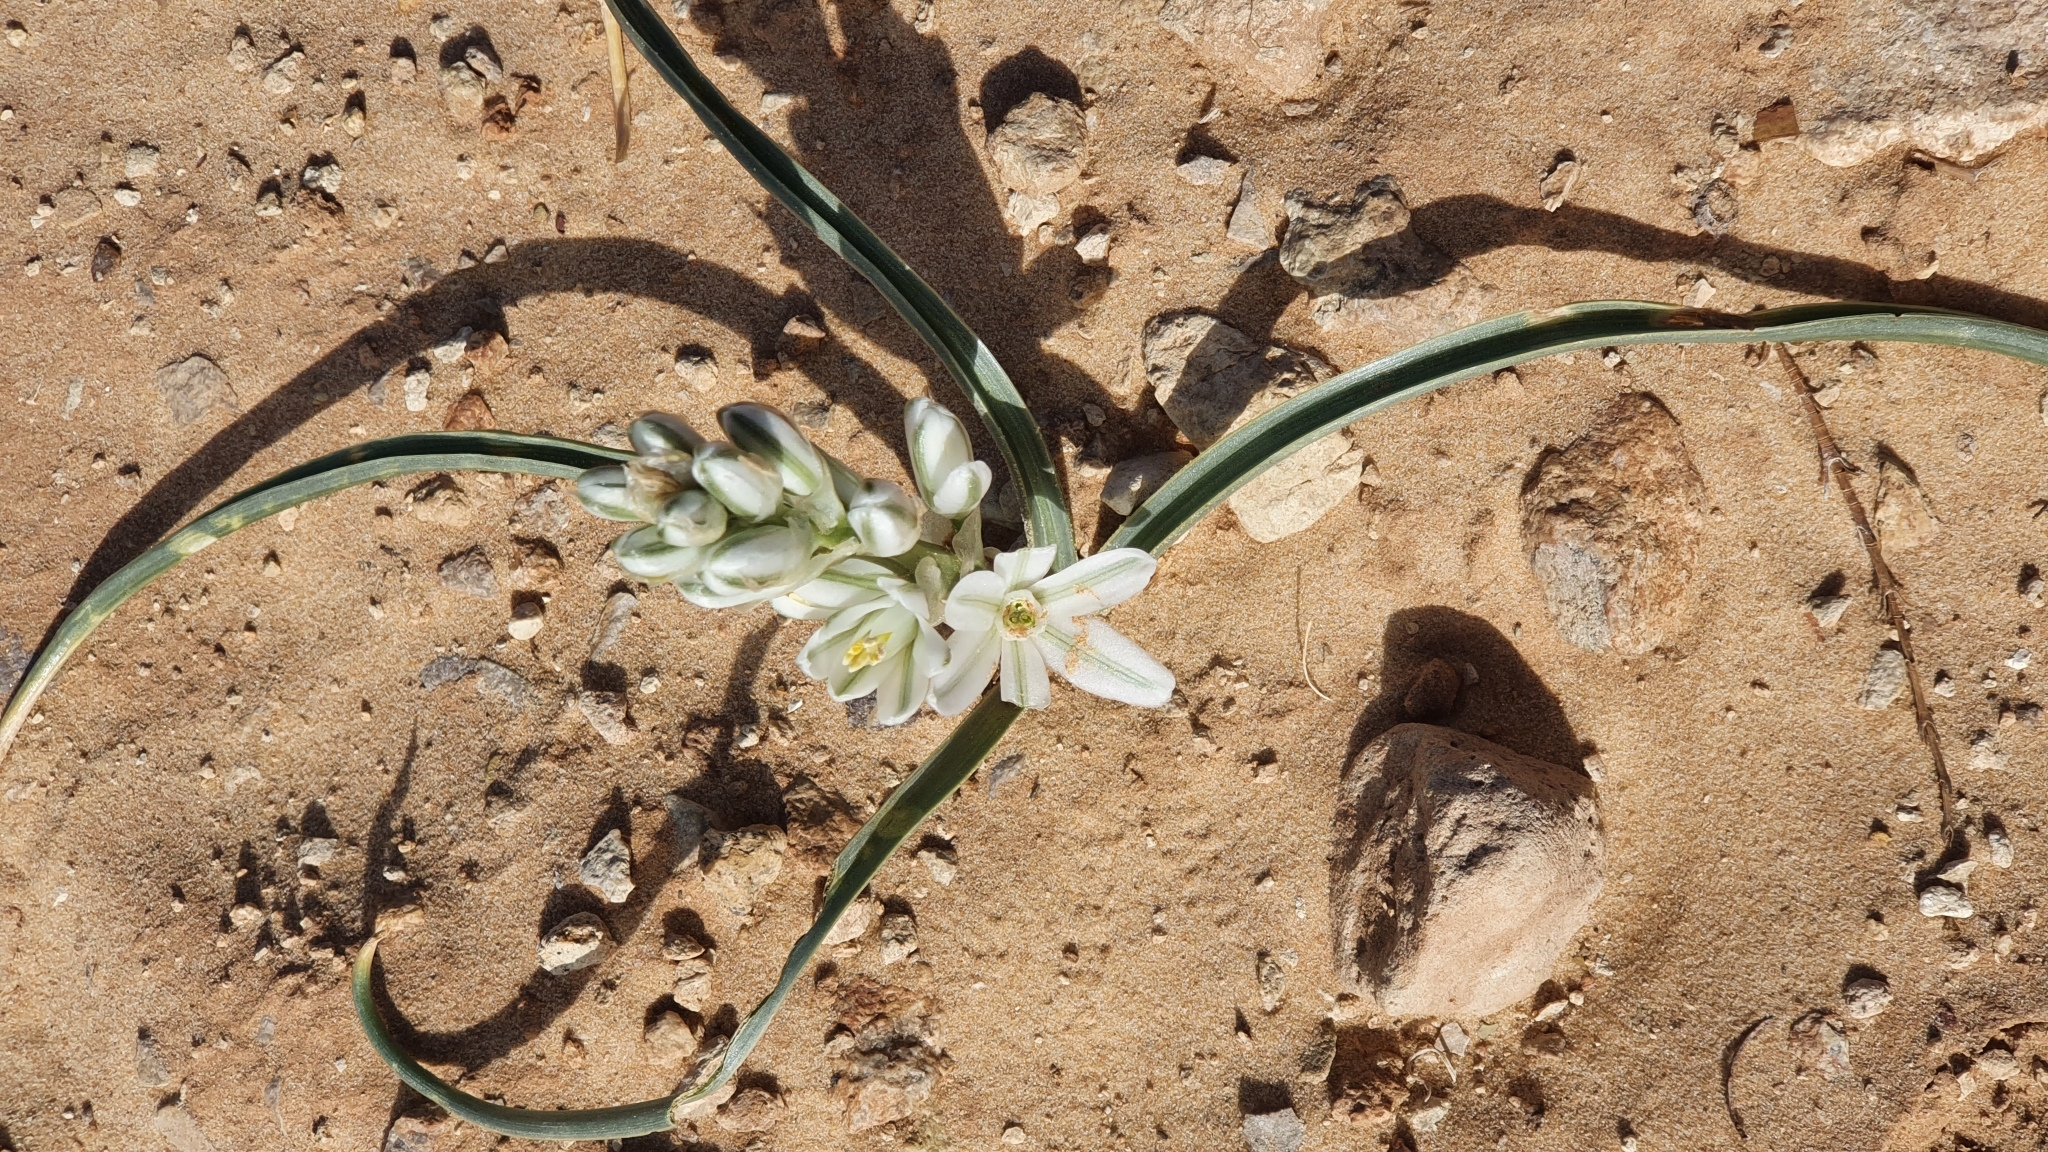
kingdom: Plantae
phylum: Tracheophyta
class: Liliopsida
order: Asparagales
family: Asparagaceae
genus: Albuca
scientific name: Albuca amoena
